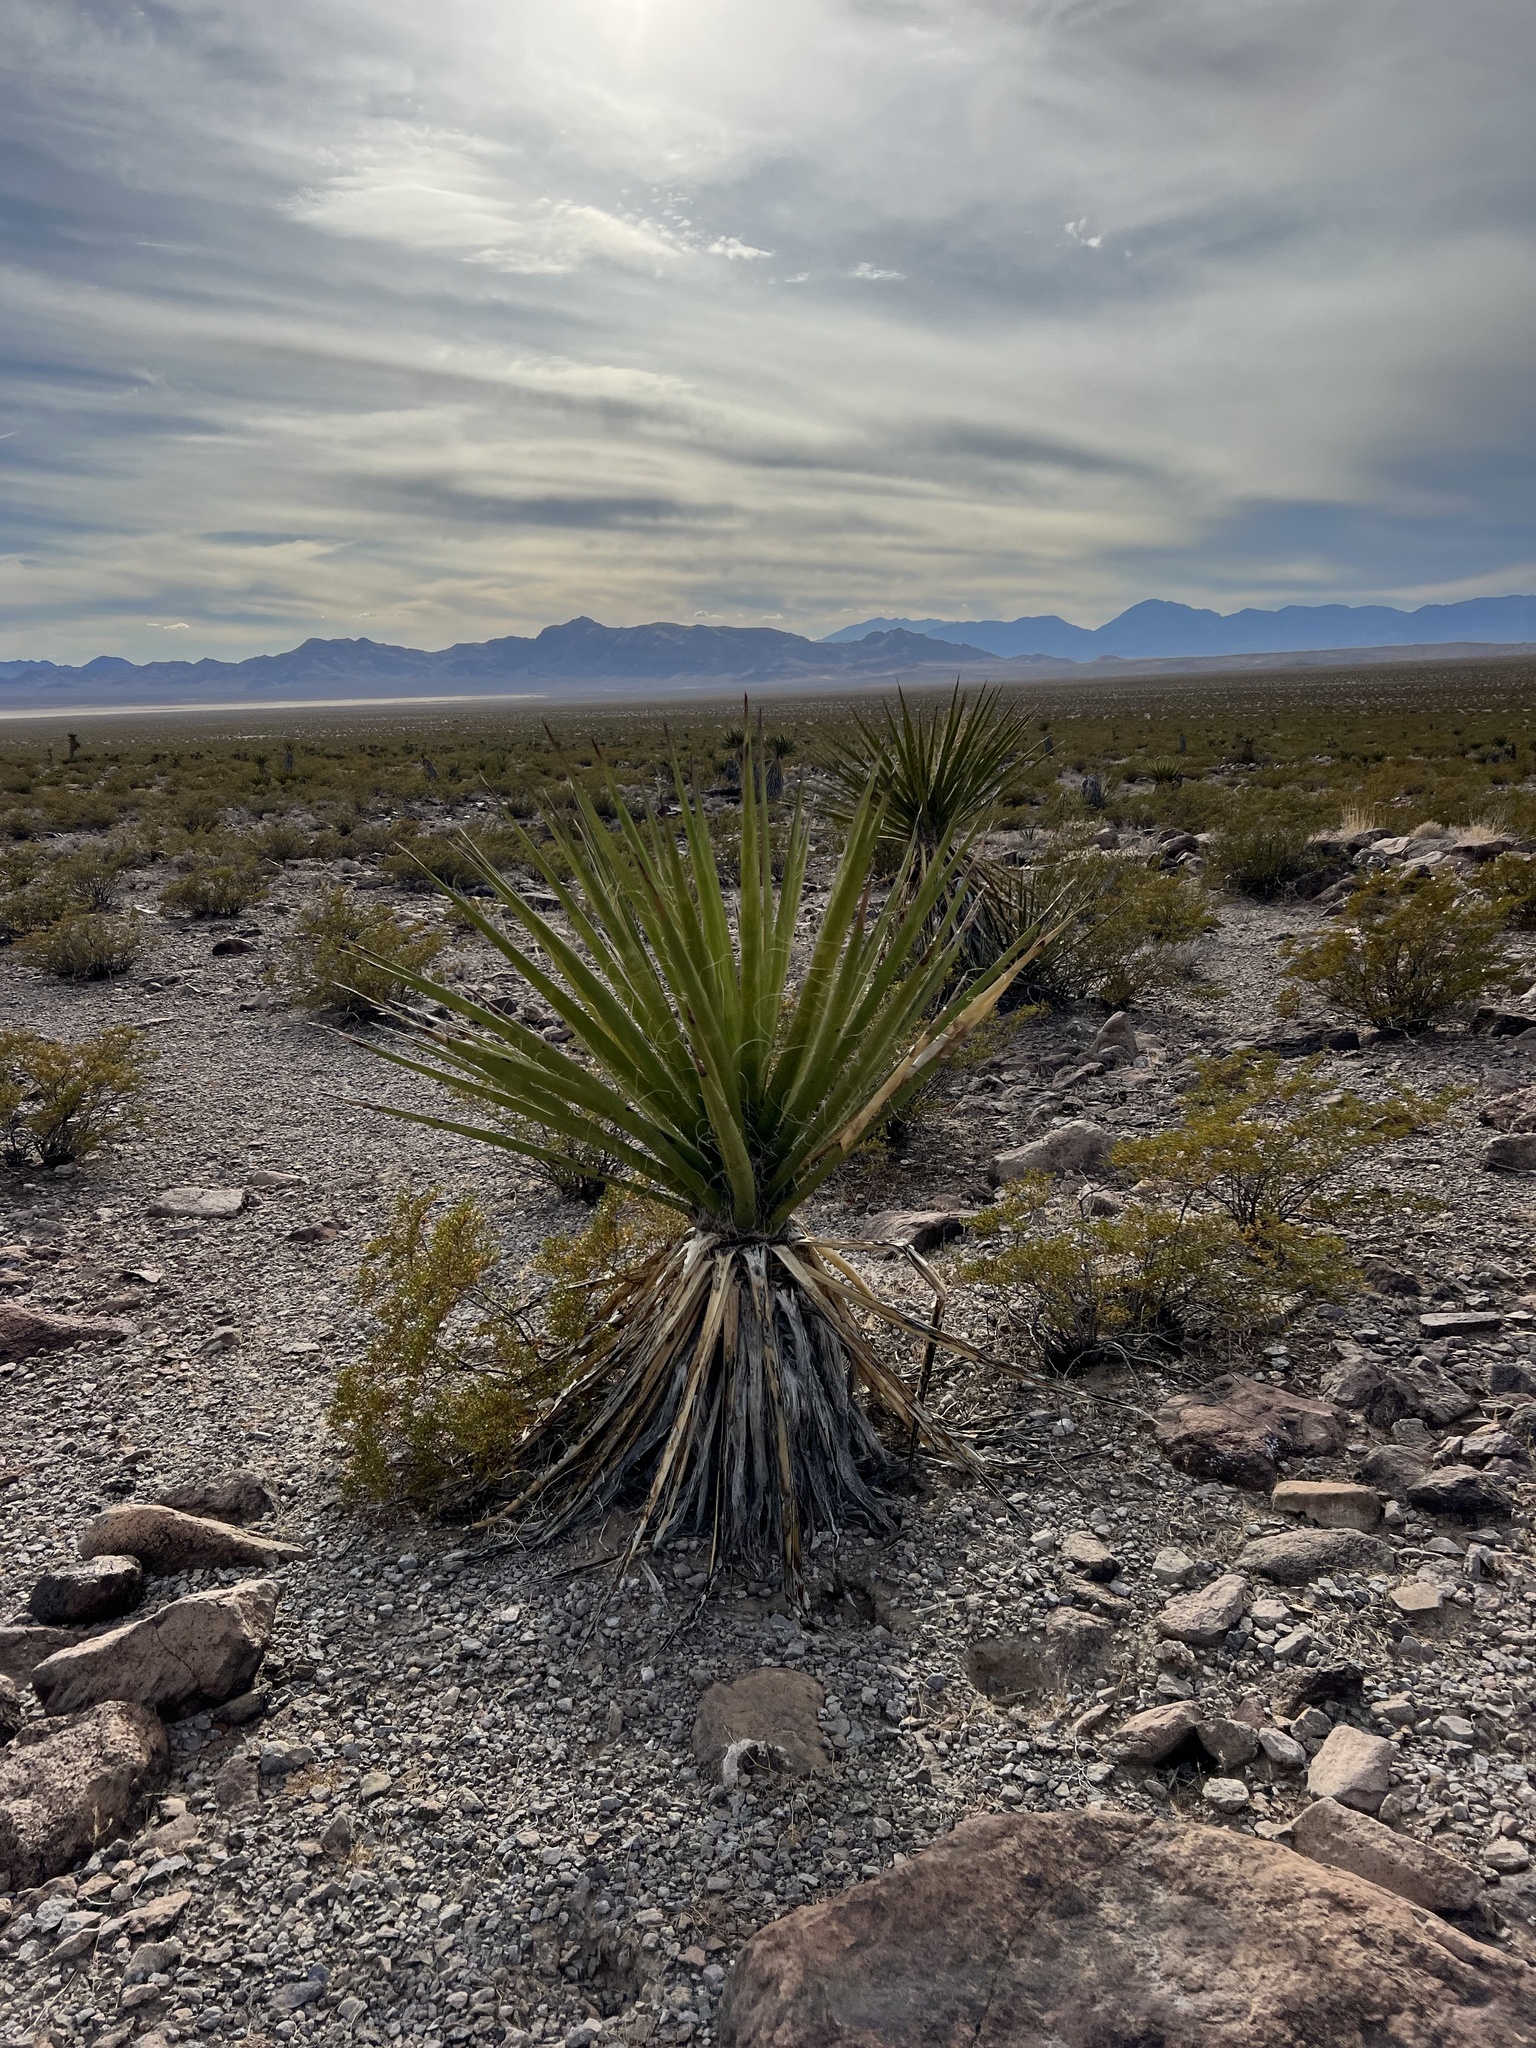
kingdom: Plantae
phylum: Tracheophyta
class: Liliopsida
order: Asparagales
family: Asparagaceae
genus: Yucca
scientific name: Yucca schidigera
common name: Mojave yucca
